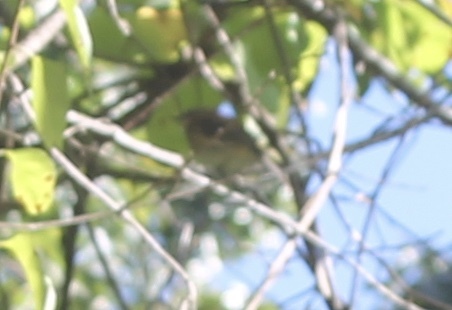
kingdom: Animalia
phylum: Chordata
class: Aves
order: Passeriformes
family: Parulidae
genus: Setophaga
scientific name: Setophaga coronata
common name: Myrtle warbler
